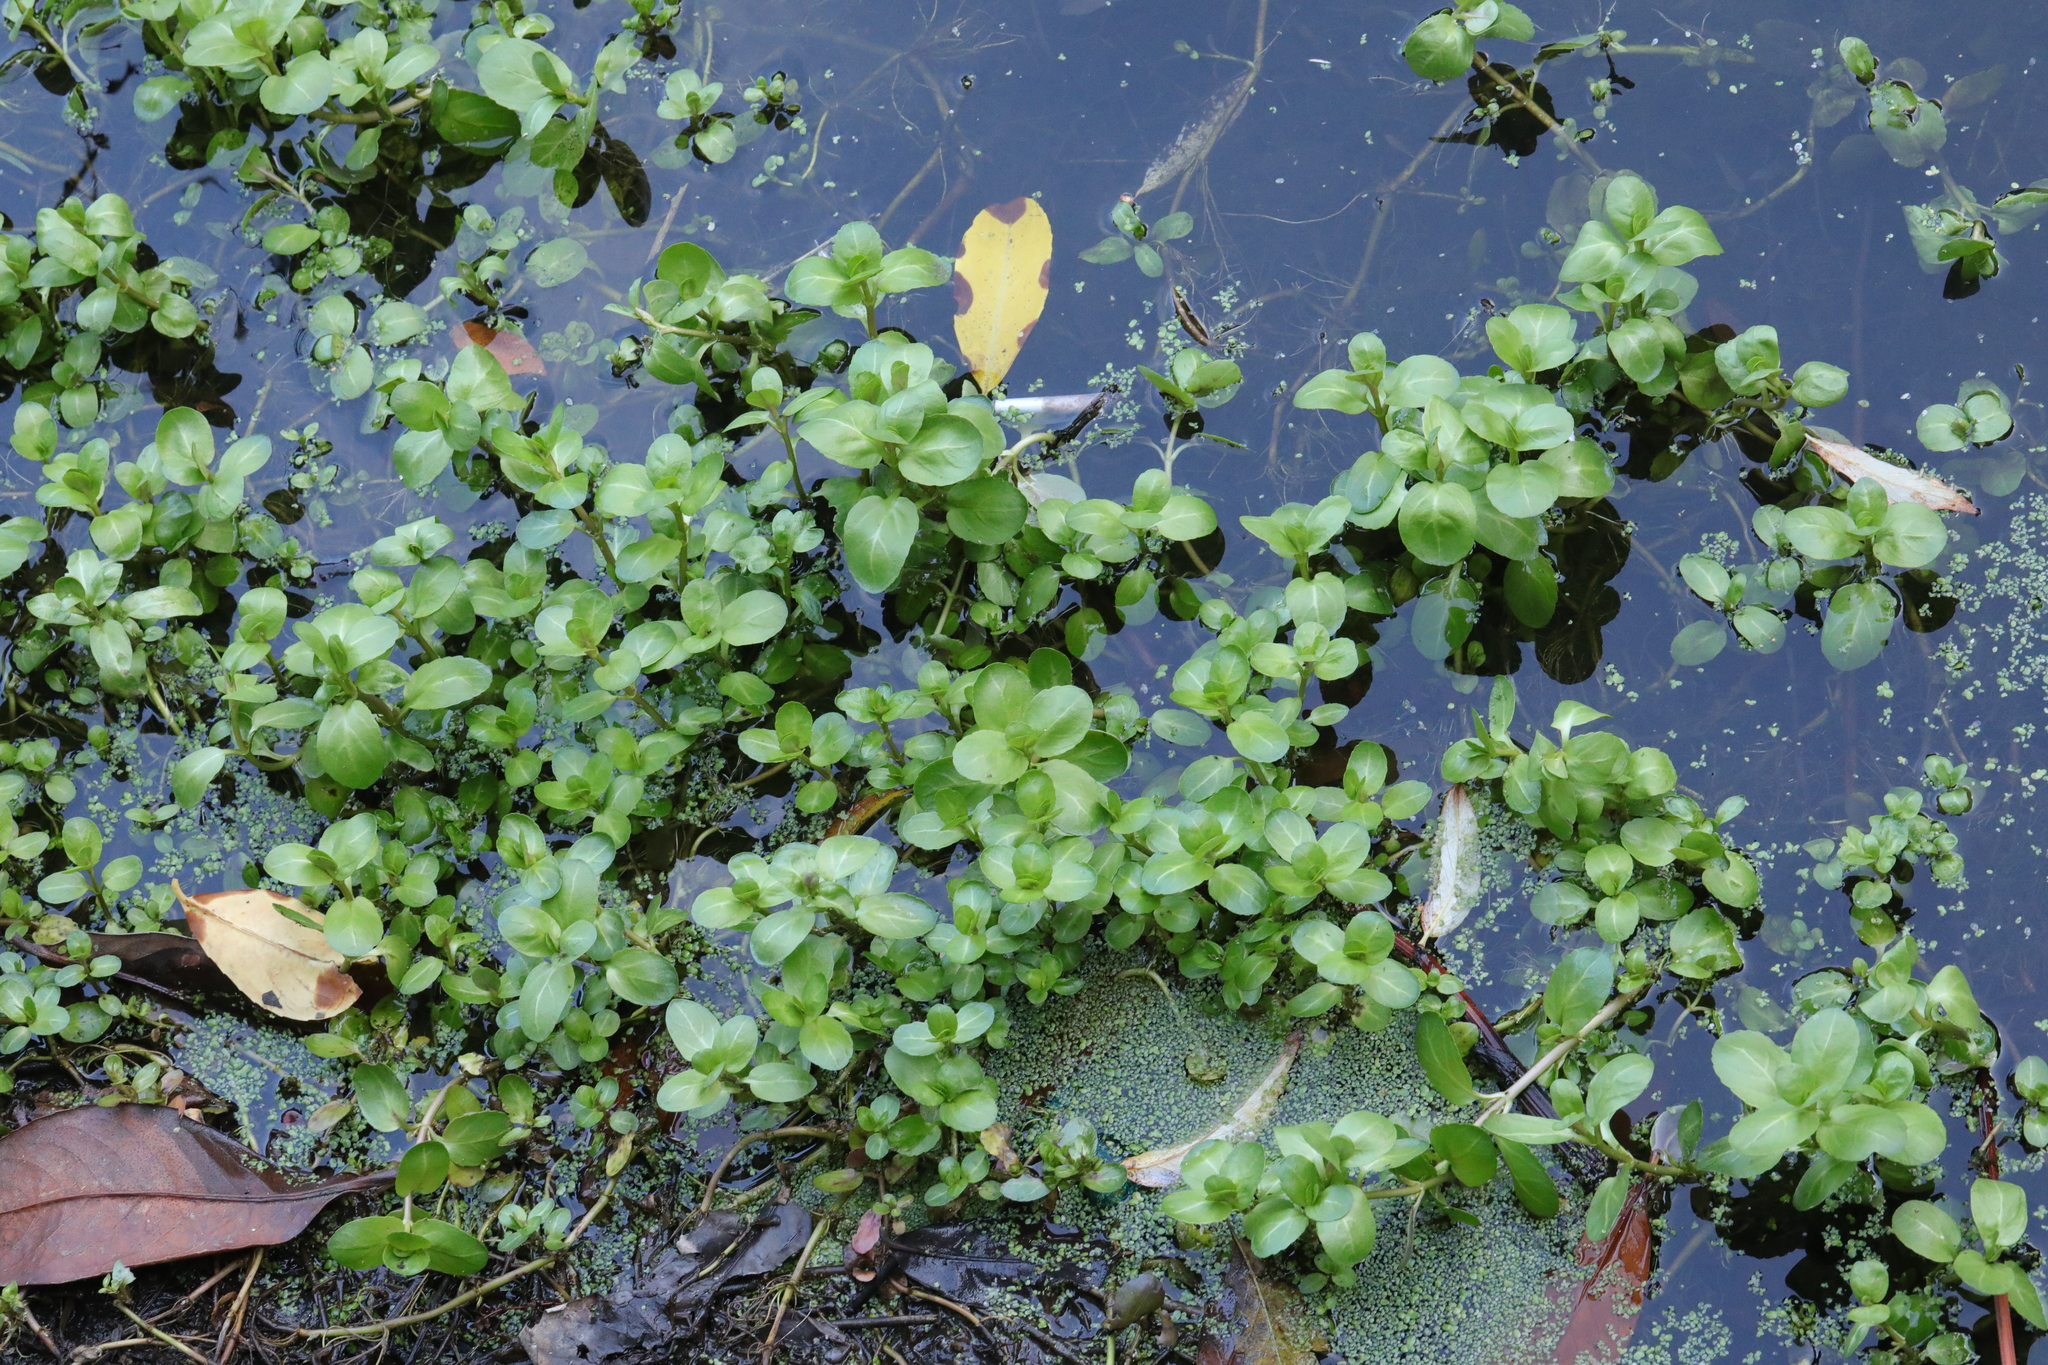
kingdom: Plantae
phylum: Tracheophyta
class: Magnoliopsida
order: Lamiales
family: Plantaginaceae
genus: Veronica
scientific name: Veronica beccabunga
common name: Brooklime
